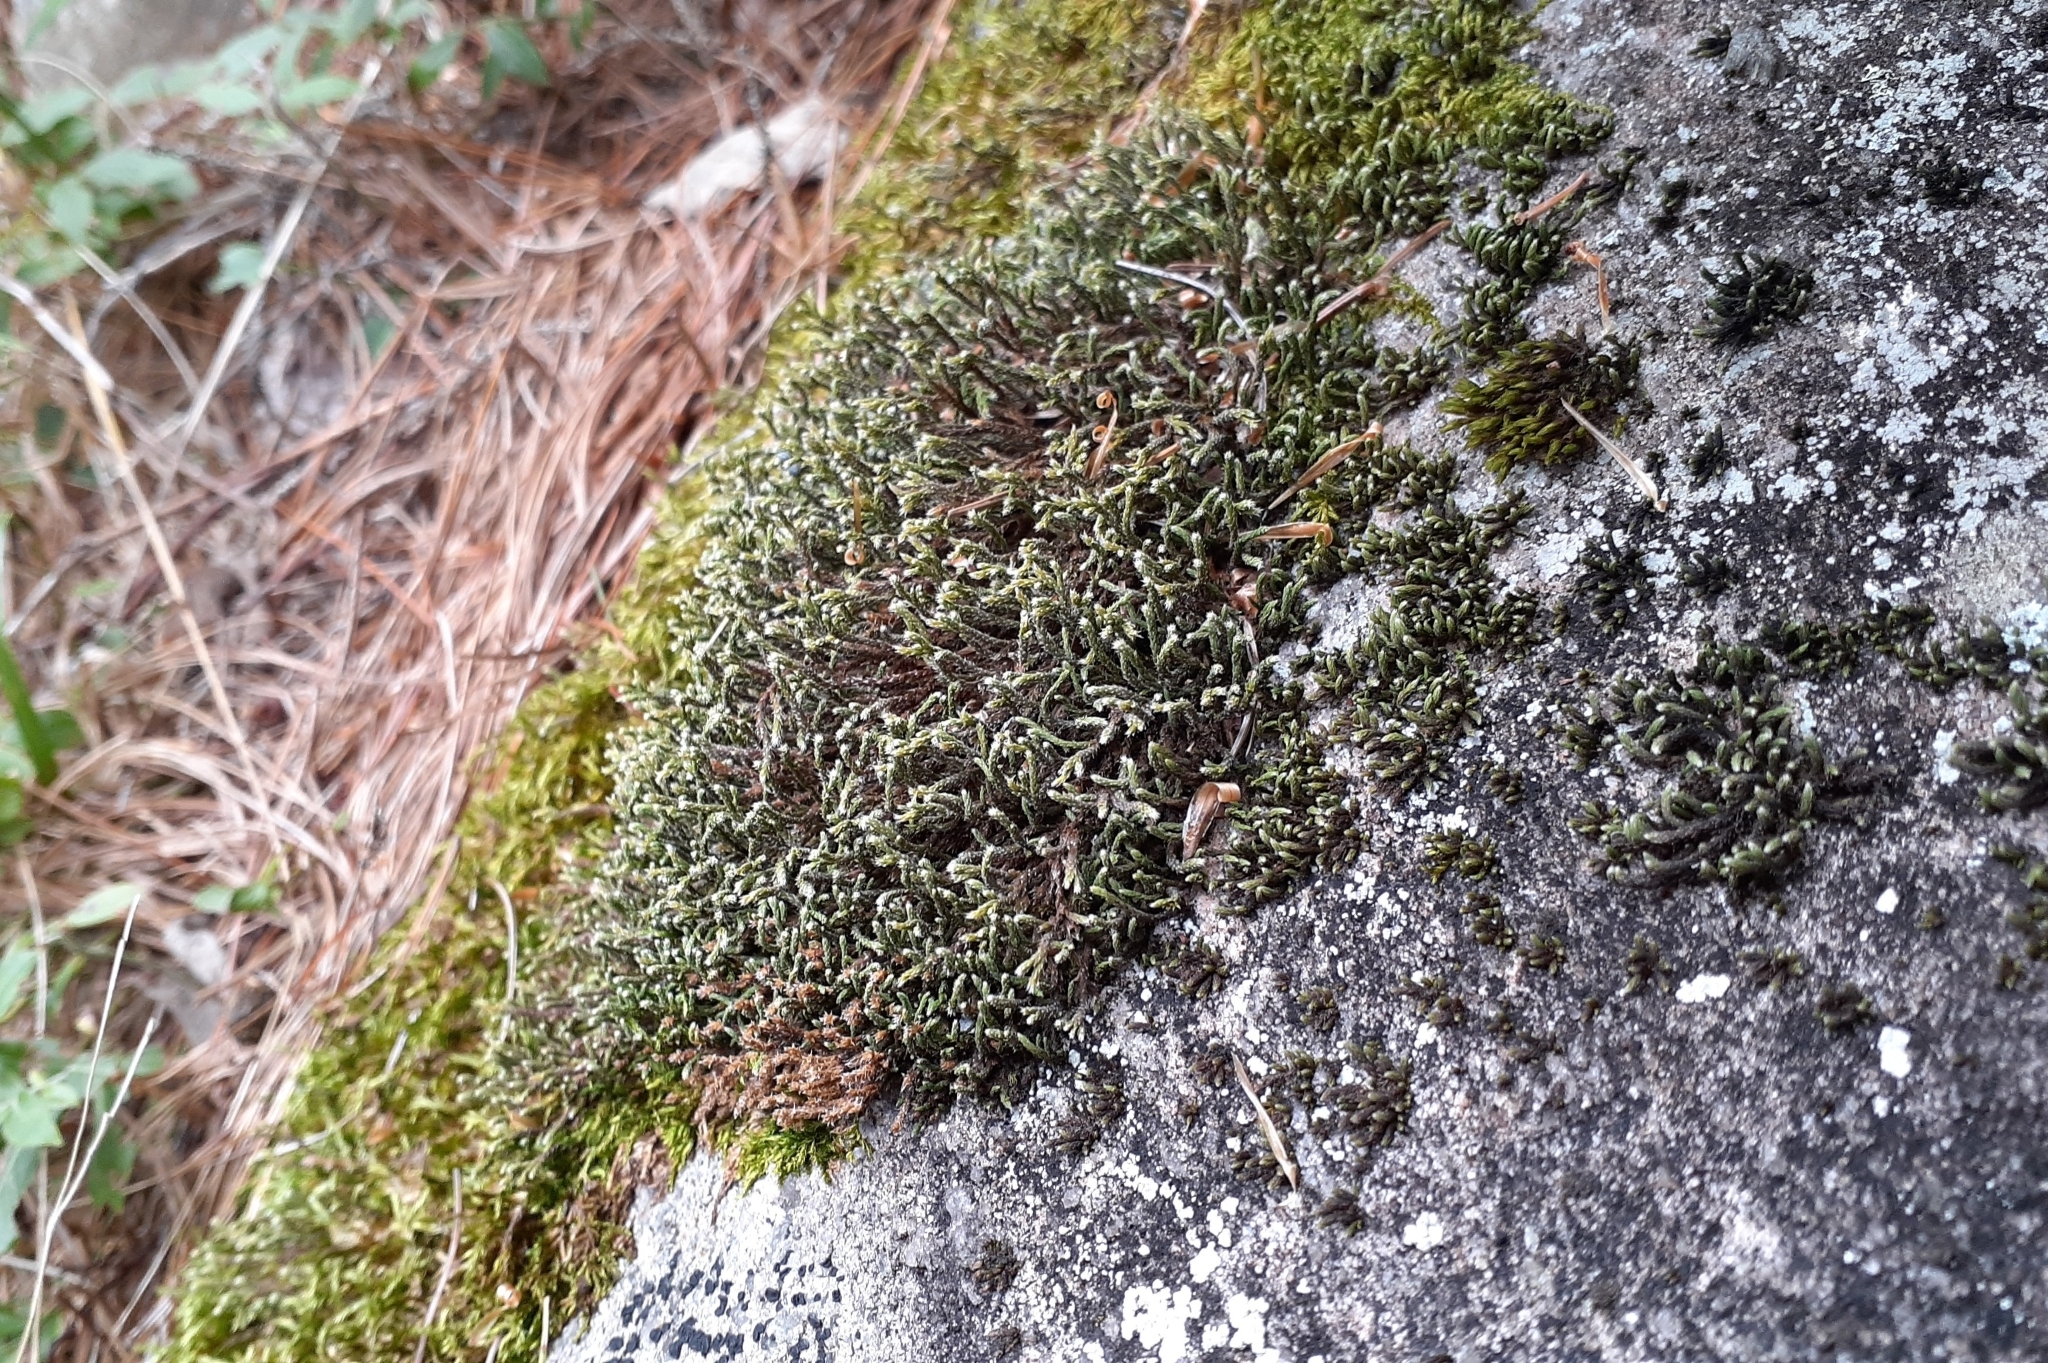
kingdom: Plantae
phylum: Bryophyta
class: Bryopsida
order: Hedwigiales
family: Hedwigiaceae
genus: Hedwigia
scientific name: Hedwigia ciliata
